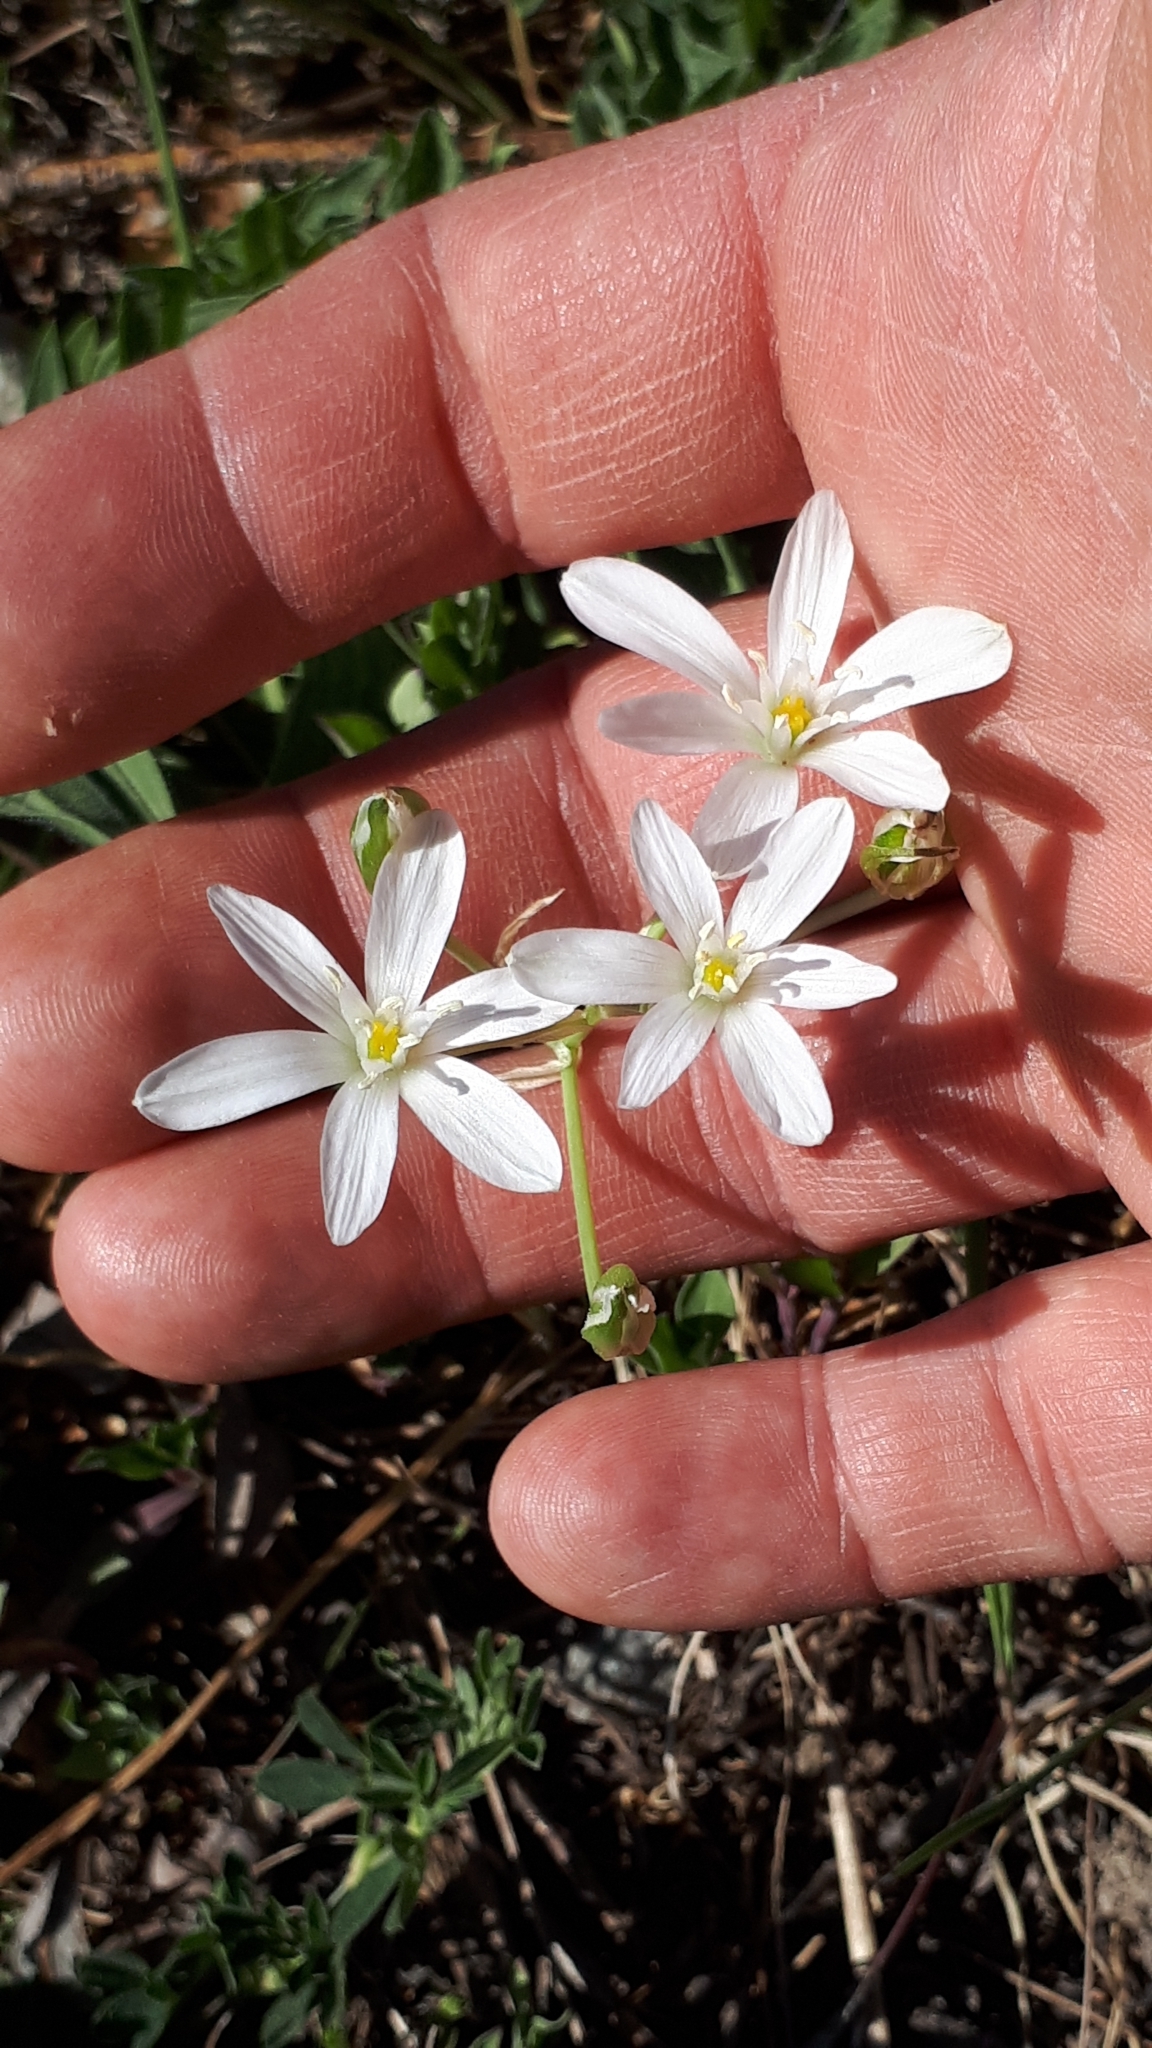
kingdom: Plantae
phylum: Tracheophyta
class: Liliopsida
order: Asparagales
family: Asparagaceae
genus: Ornithogalum
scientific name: Ornithogalum umbellatum
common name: Garden star-of-bethlehem
